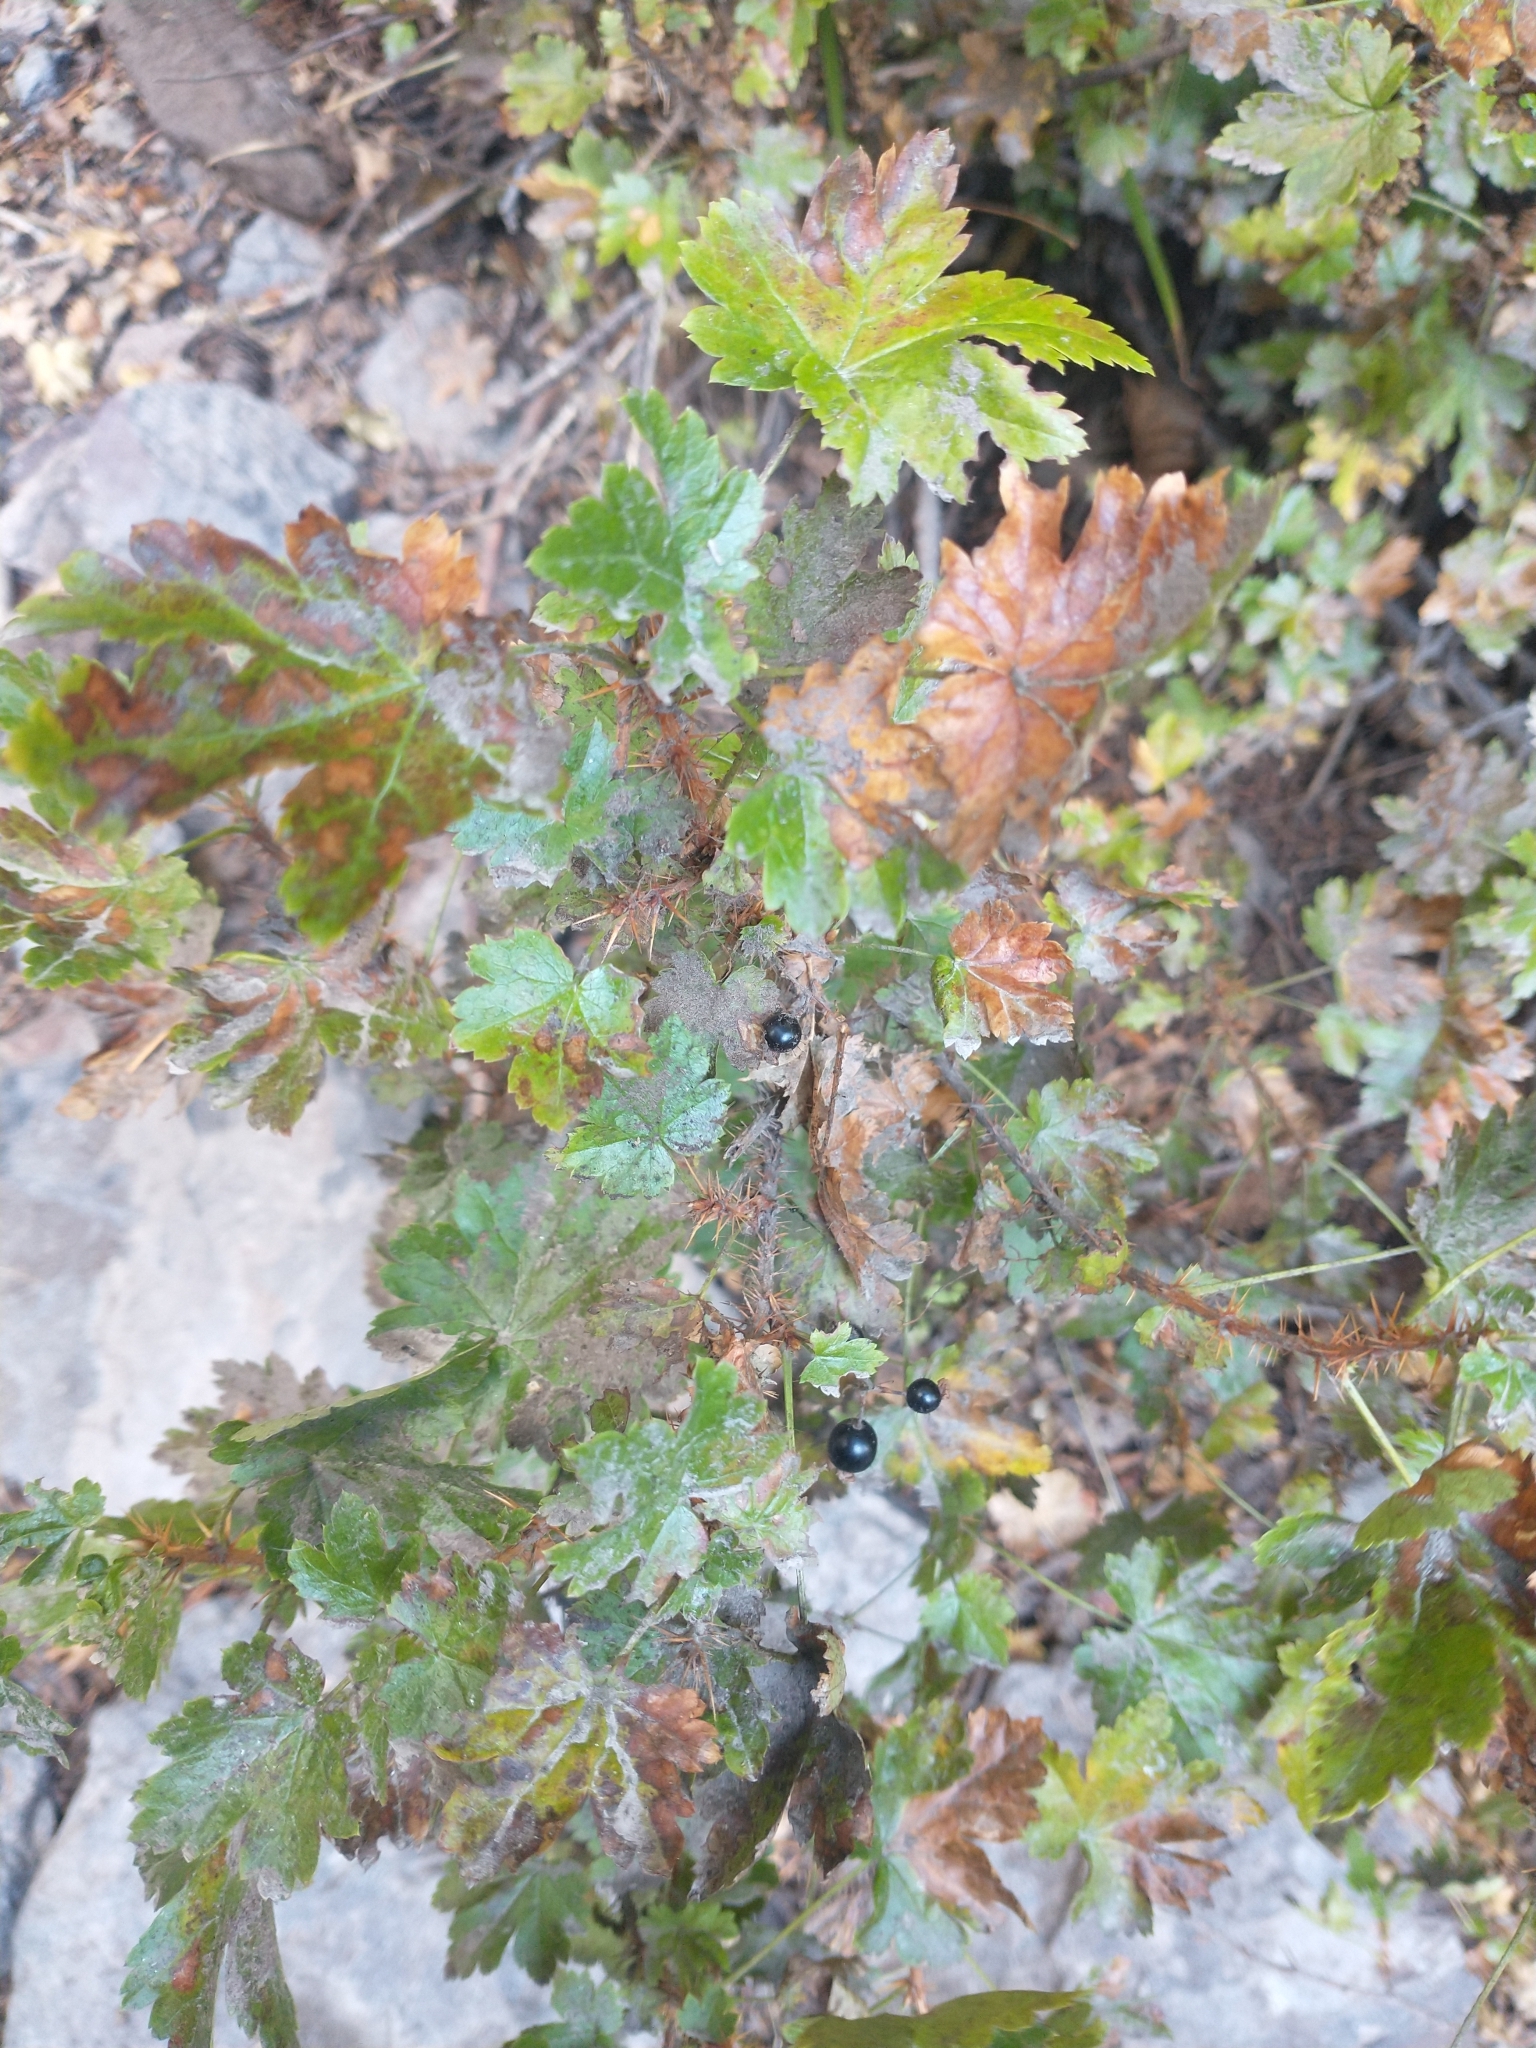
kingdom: Plantae
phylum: Tracheophyta
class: Magnoliopsida
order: Saxifragales
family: Grossulariaceae
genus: Ribes
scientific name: Ribes lacustre
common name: Black gooseberry
